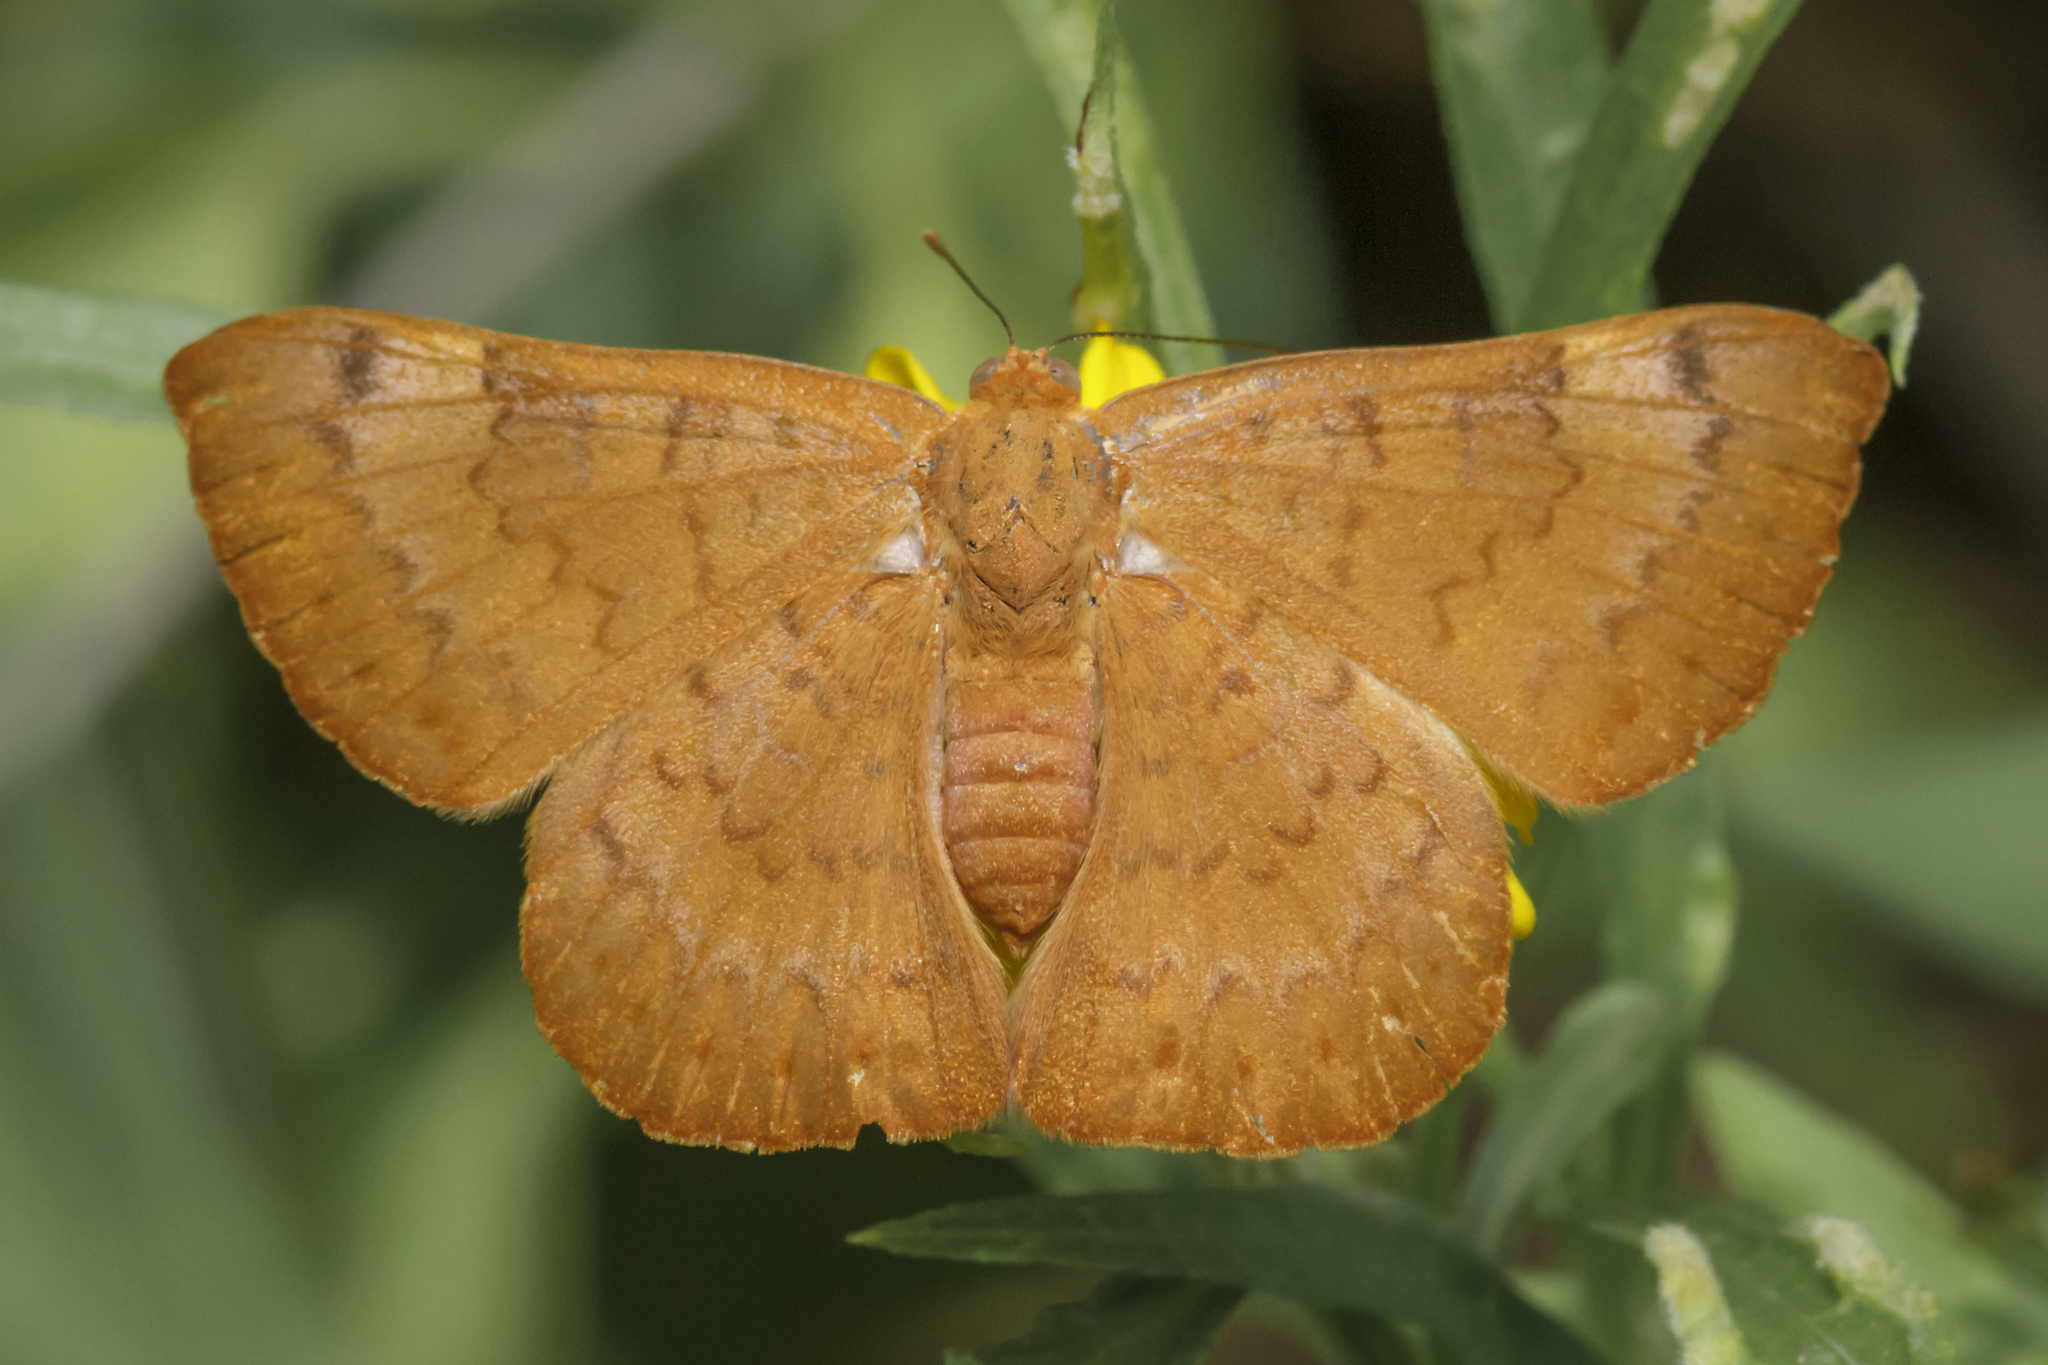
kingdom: Animalia
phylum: Arthropoda
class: Insecta
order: Lepidoptera
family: Lycaenidae
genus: Emesis
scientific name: Emesis russula
